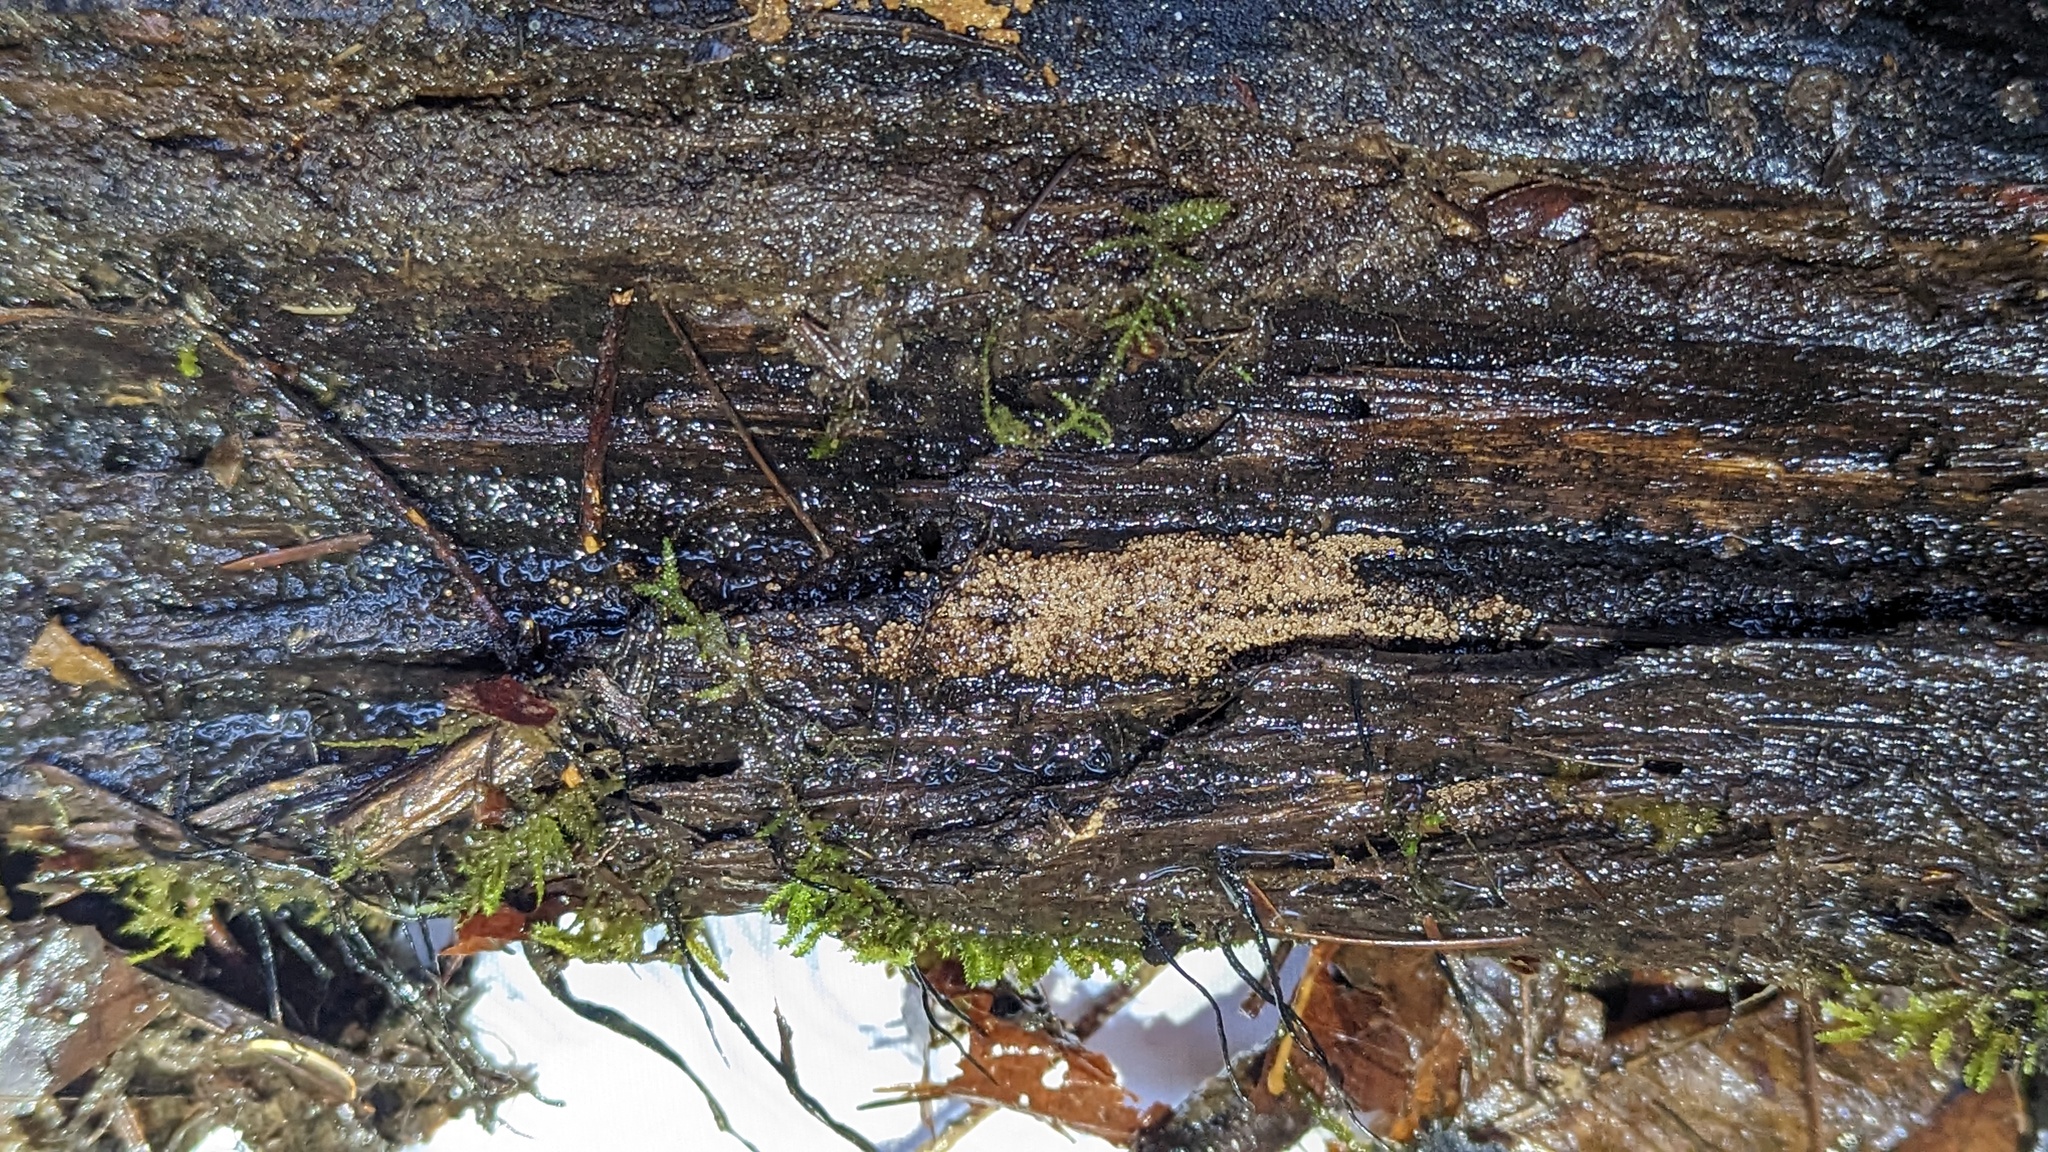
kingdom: Fungi
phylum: Basidiomycota
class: Agaricomycetes
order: Agaricales
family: Niaceae
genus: Merismodes
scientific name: Merismodes fasciculata
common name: Crowded cuplet
